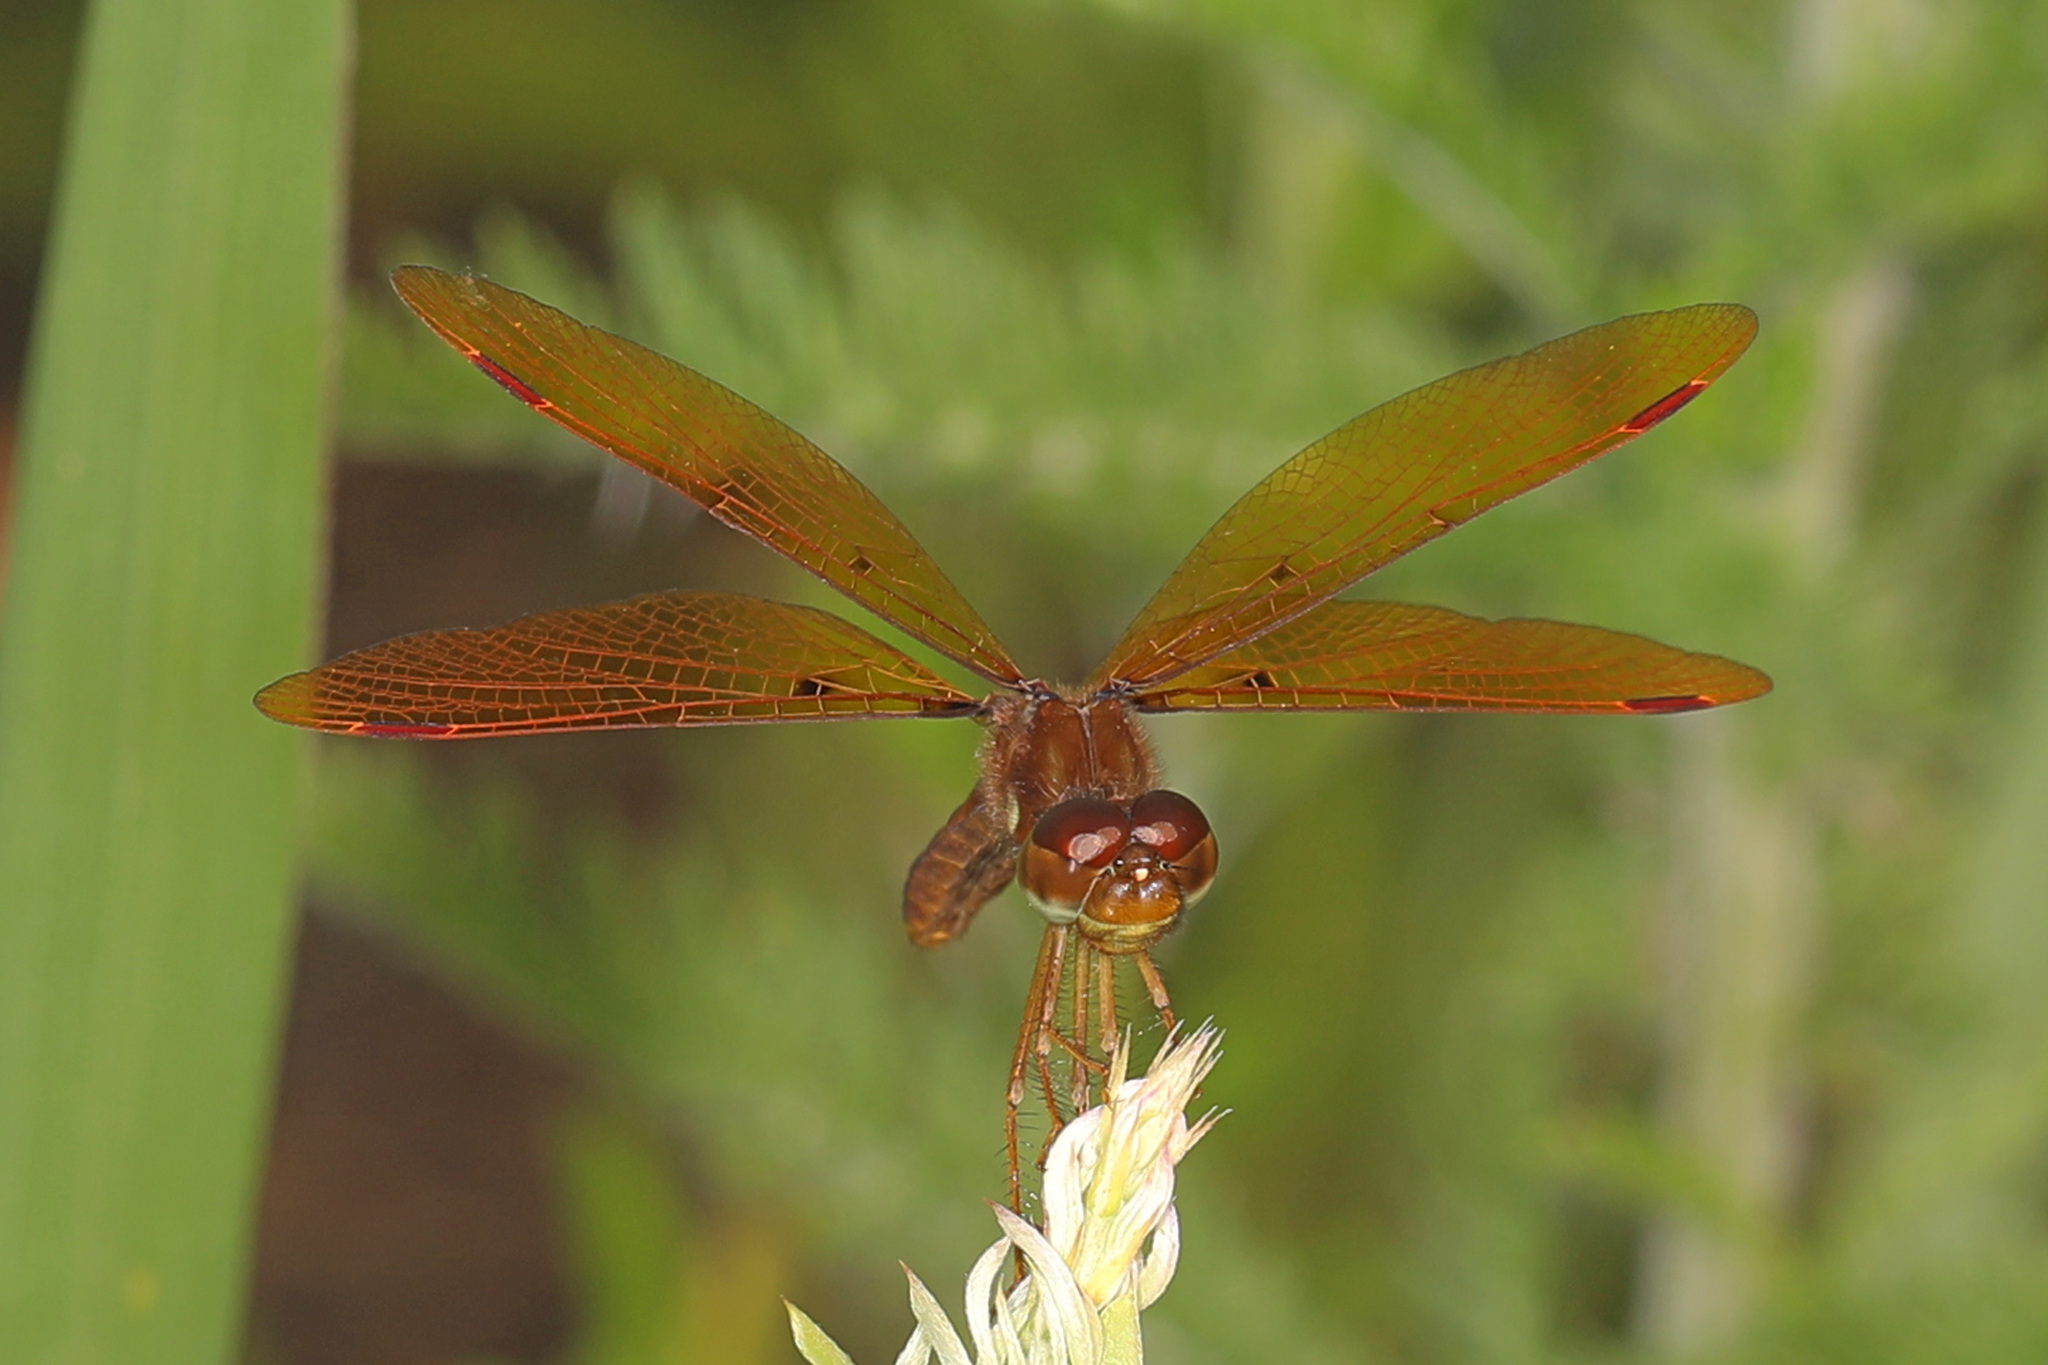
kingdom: Animalia
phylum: Arthropoda
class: Insecta
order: Odonata
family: Libellulidae
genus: Perithemis
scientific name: Perithemis tenera
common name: Eastern amberwing
